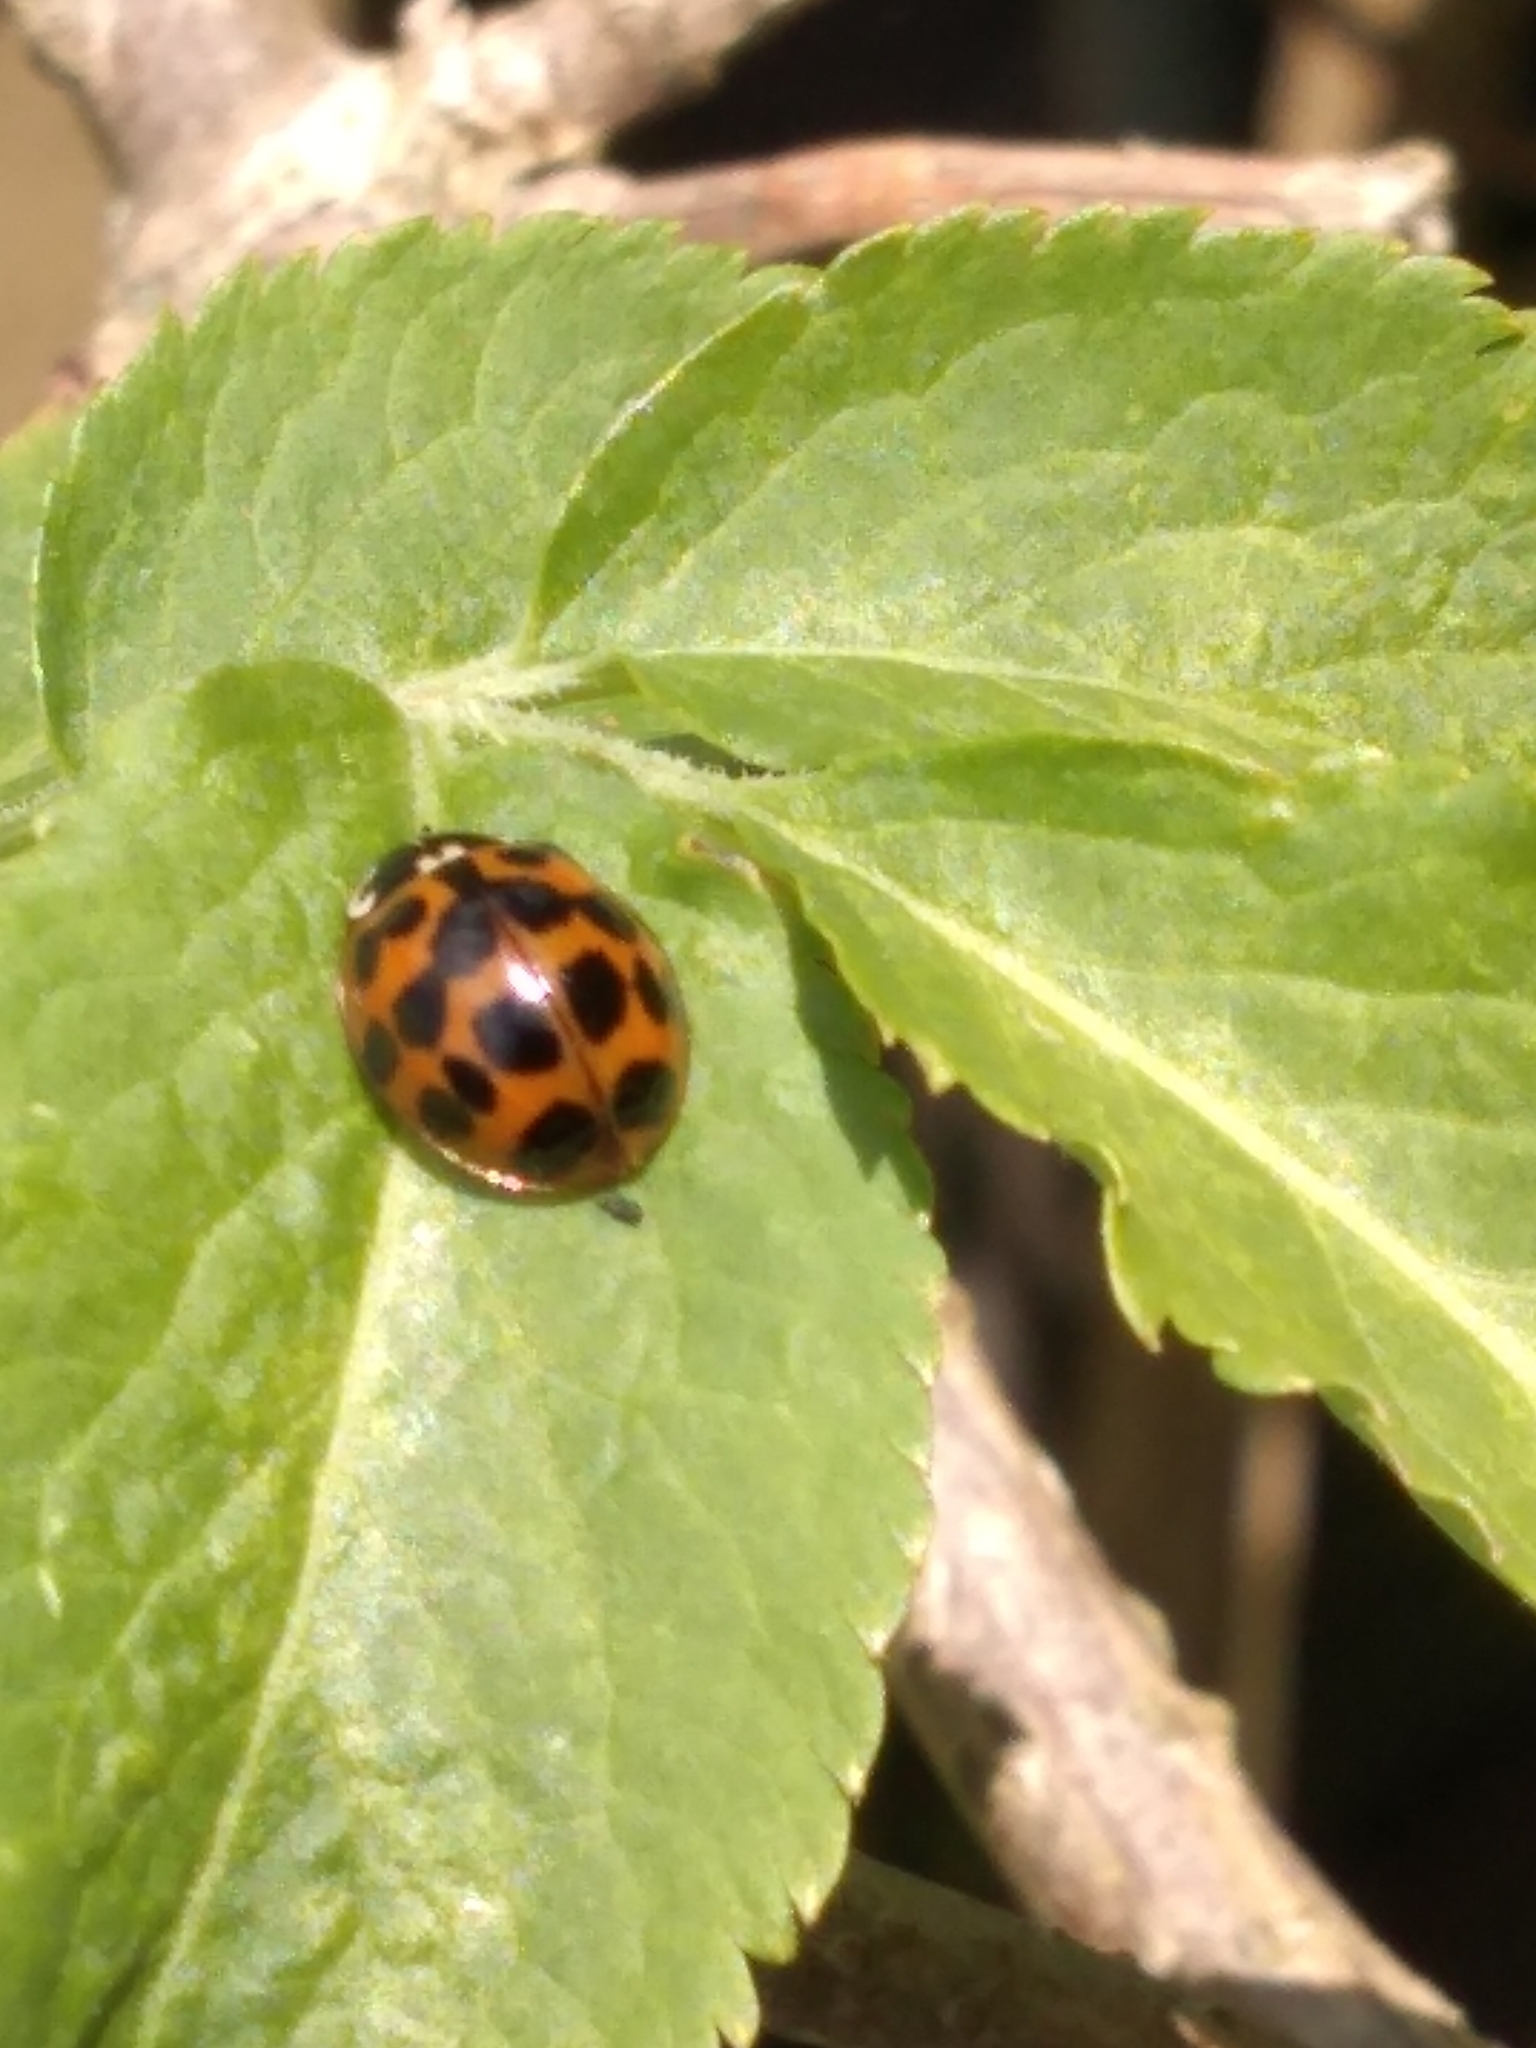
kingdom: Animalia
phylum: Arthropoda
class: Insecta
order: Coleoptera
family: Coccinellidae
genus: Harmonia
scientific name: Harmonia axyridis
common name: Harlequin ladybird
